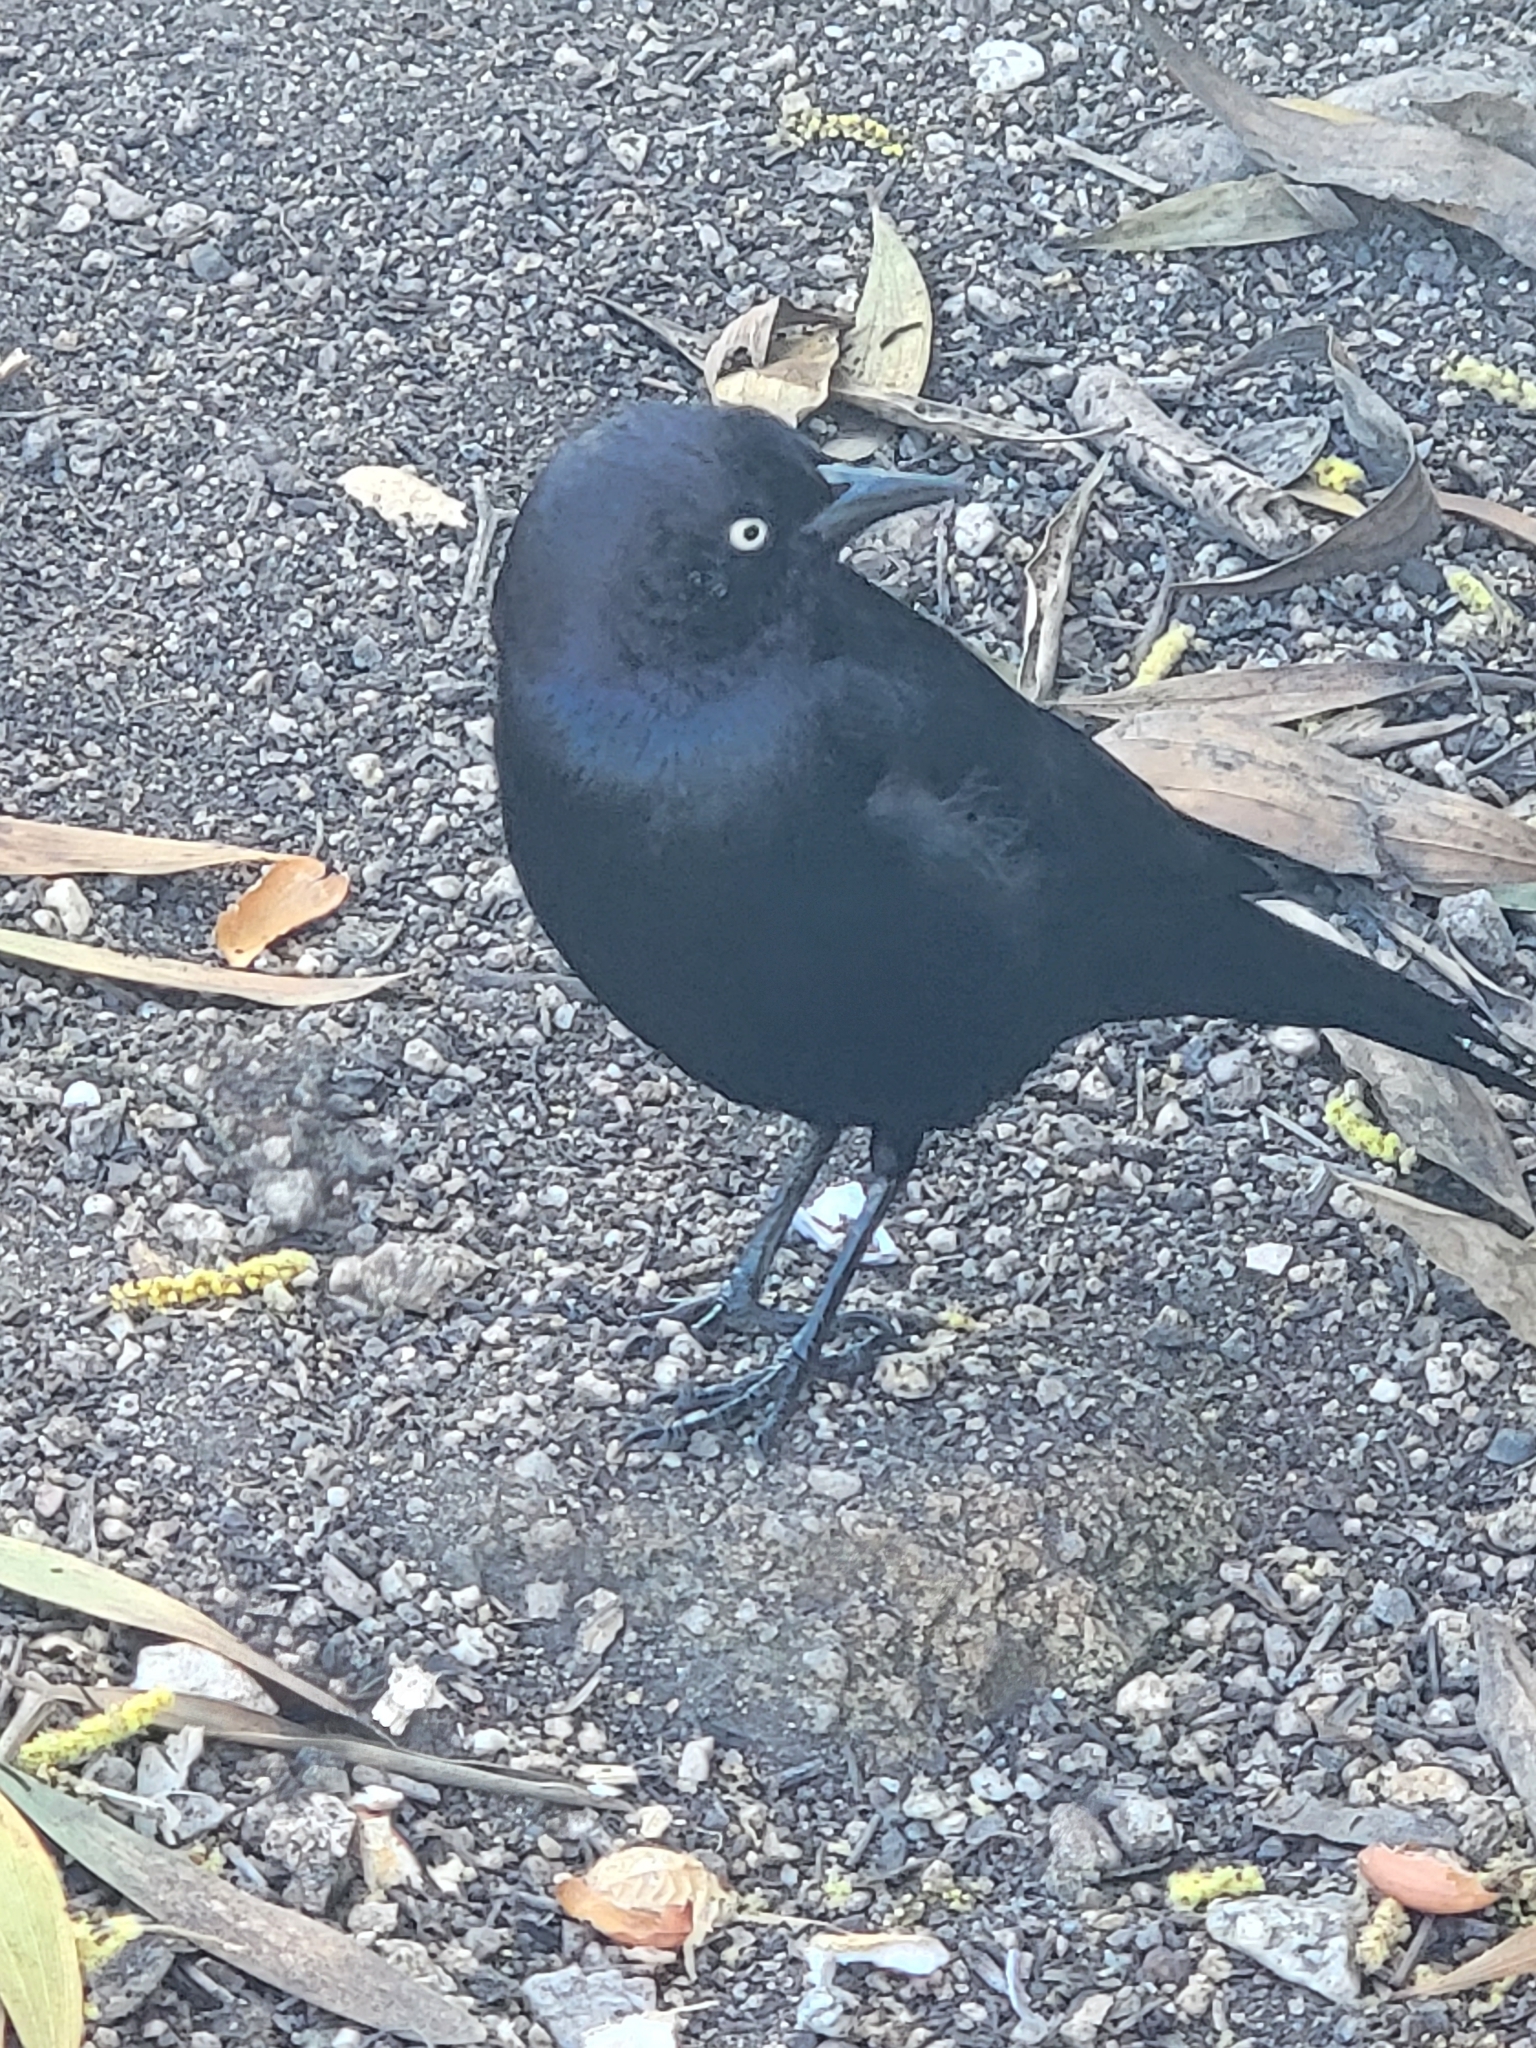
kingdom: Animalia
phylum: Chordata
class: Aves
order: Passeriformes
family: Icteridae
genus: Euphagus
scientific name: Euphagus cyanocephalus
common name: Brewer's blackbird
